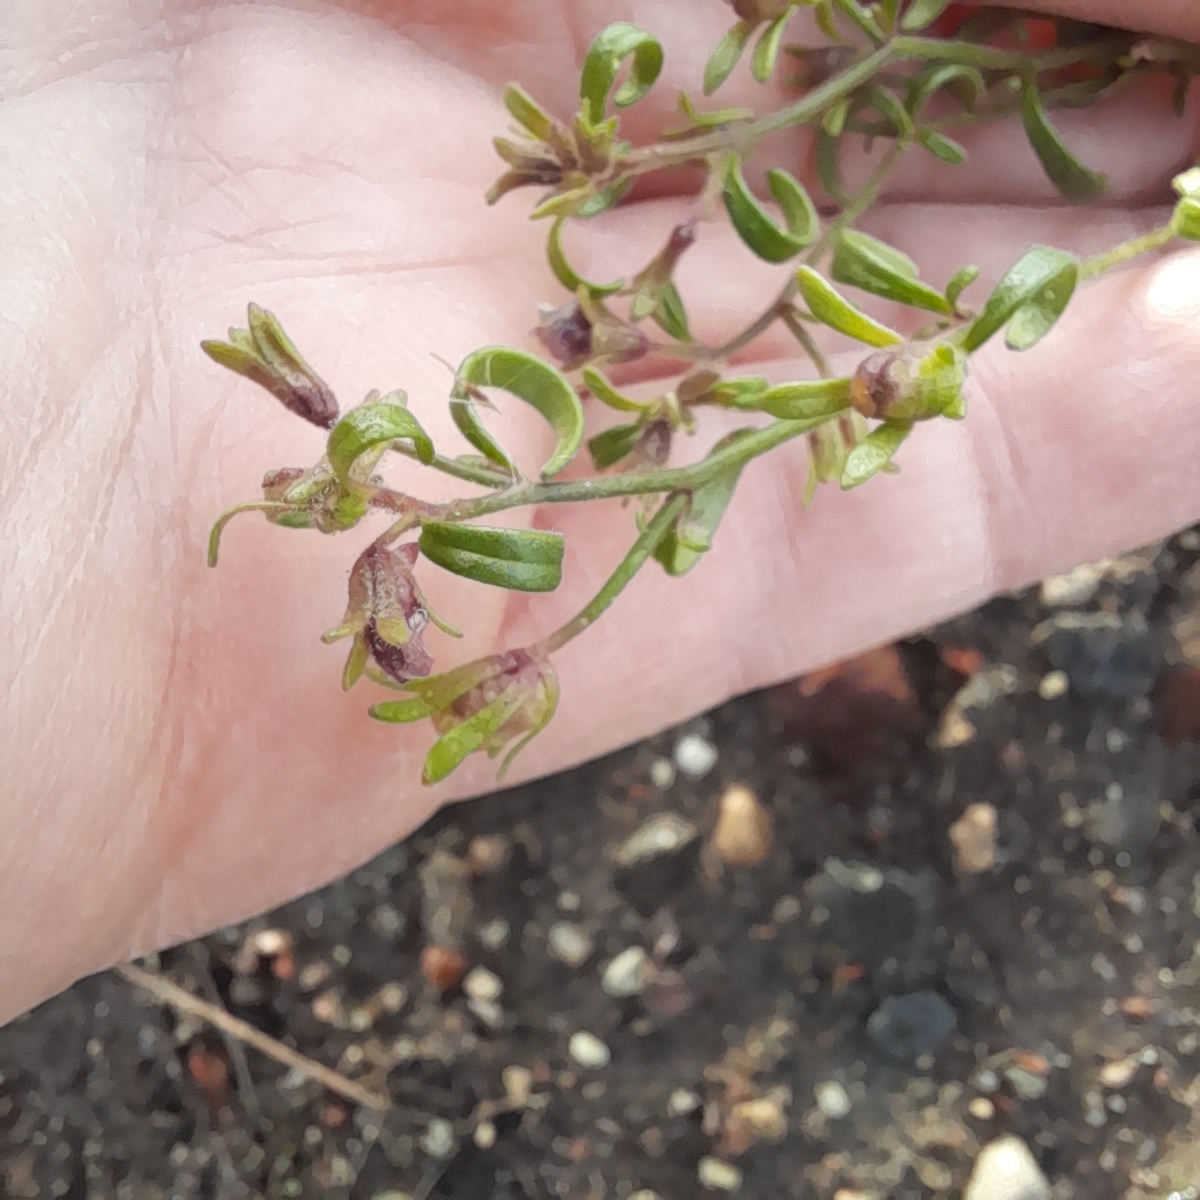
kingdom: Plantae
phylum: Tracheophyta
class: Magnoliopsida
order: Lamiales
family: Plantaginaceae
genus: Chaenorhinum
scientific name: Chaenorhinum minus
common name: Dwarf snapdragon
